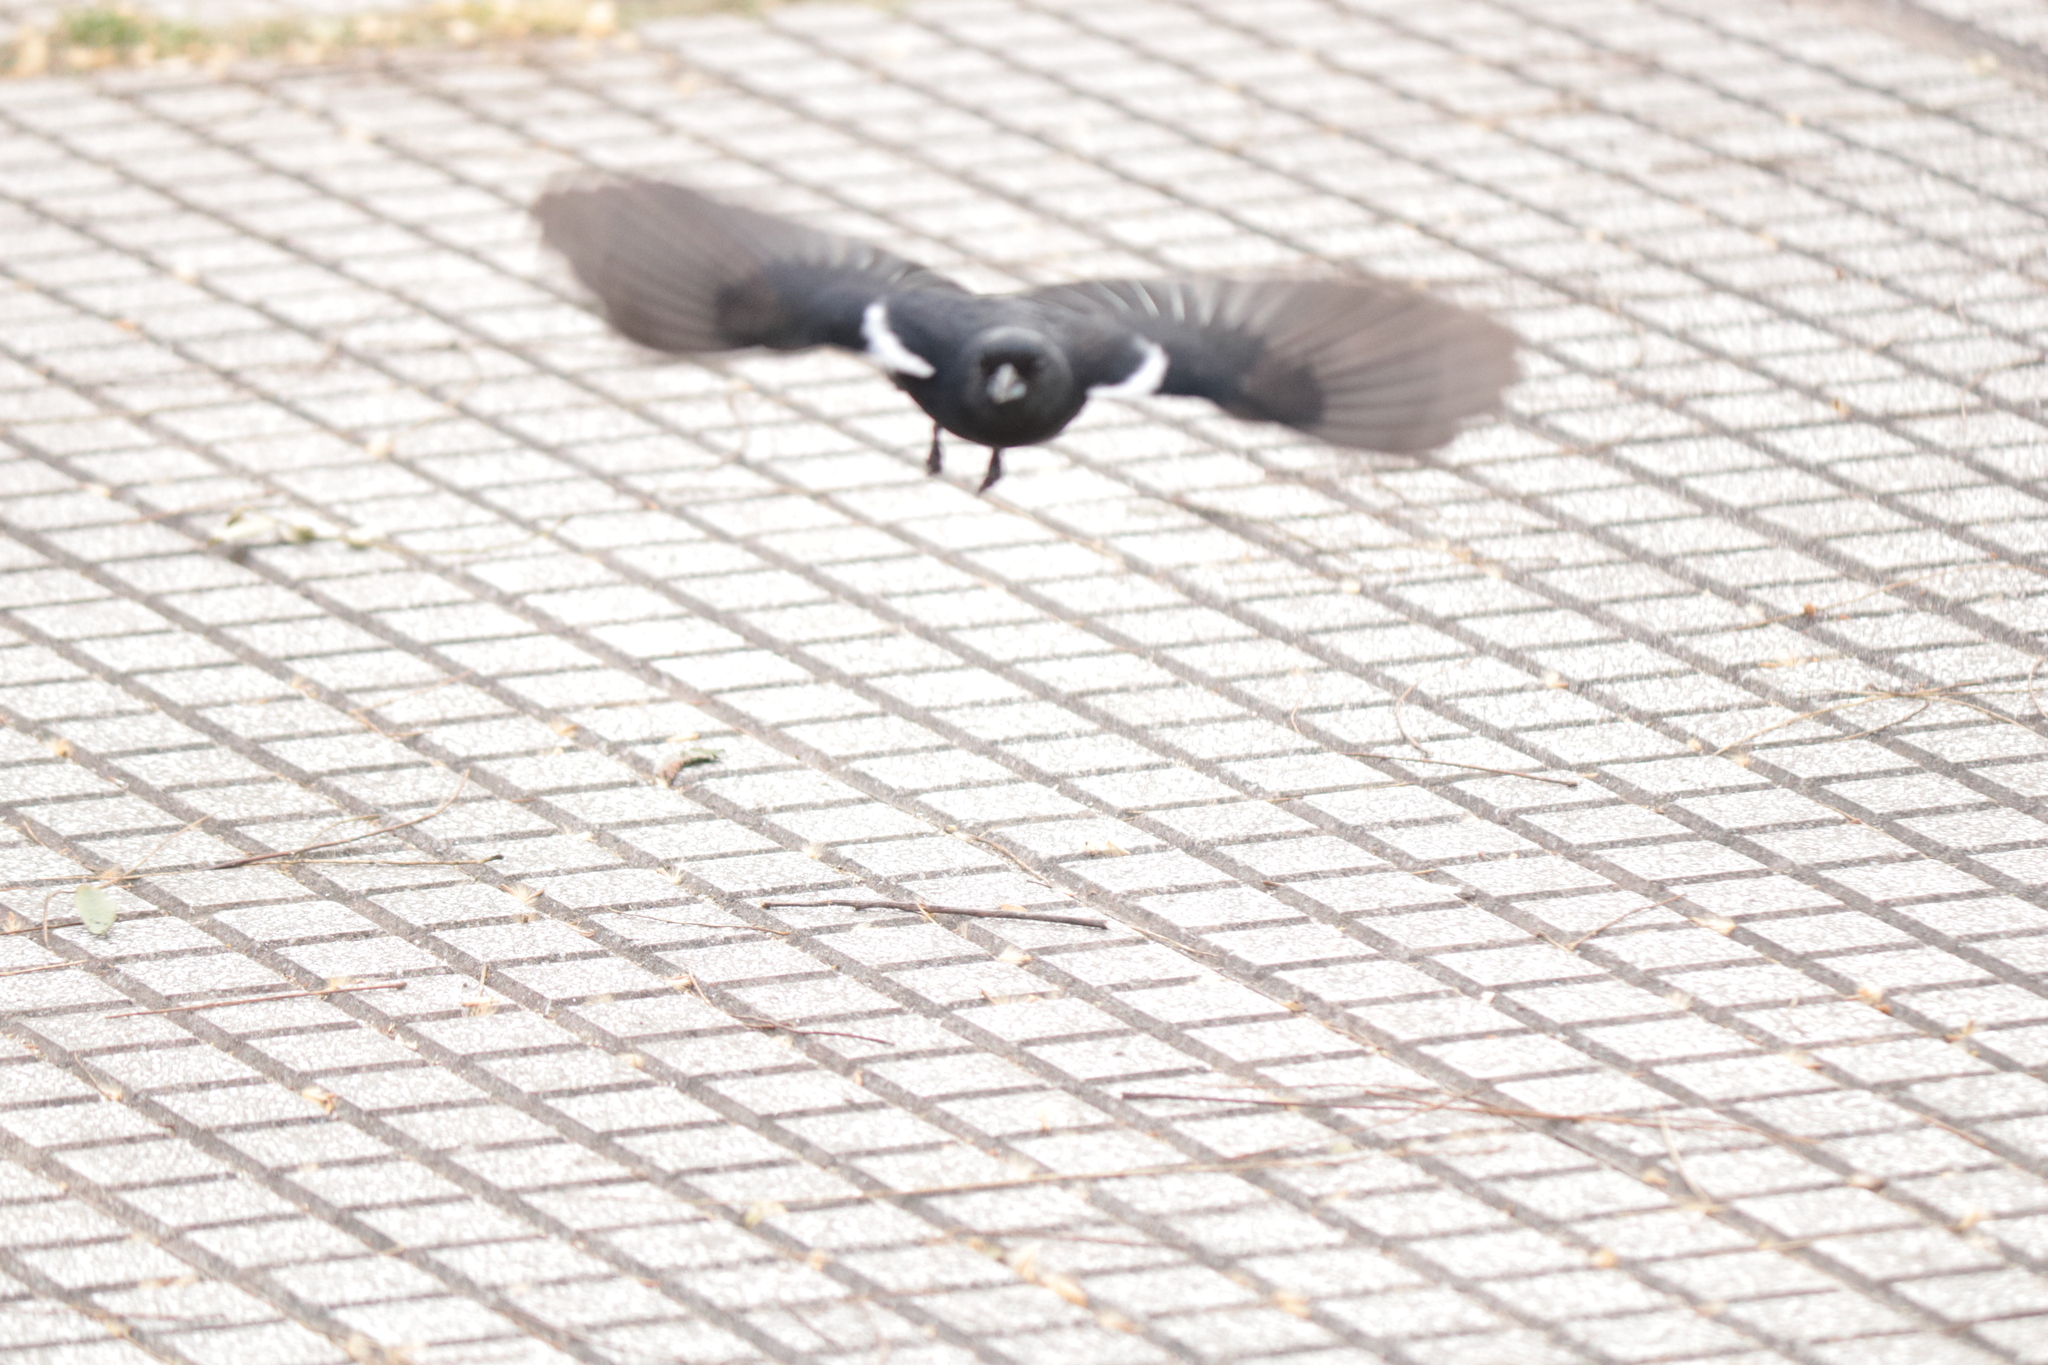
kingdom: Animalia
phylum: Chordata
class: Aves
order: Passeriformes
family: Thraupidae
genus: Tachyphonus
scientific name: Tachyphonus rufus
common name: White-lined tanager
